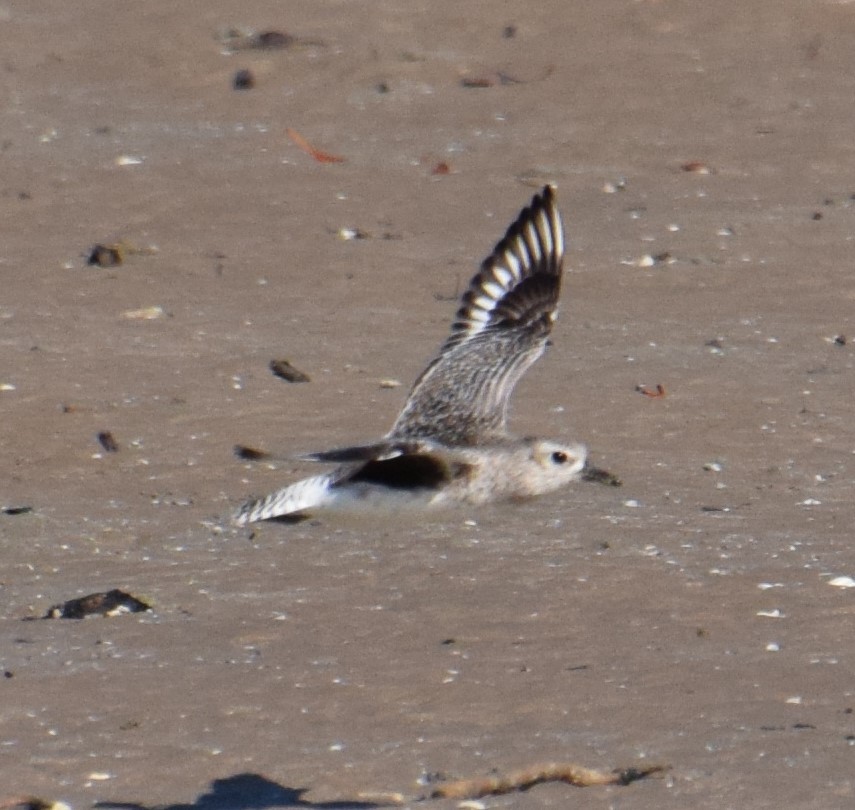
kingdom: Animalia
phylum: Chordata
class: Aves
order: Charadriiformes
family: Charadriidae
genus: Pluvialis
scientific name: Pluvialis squatarola
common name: Grey plover
